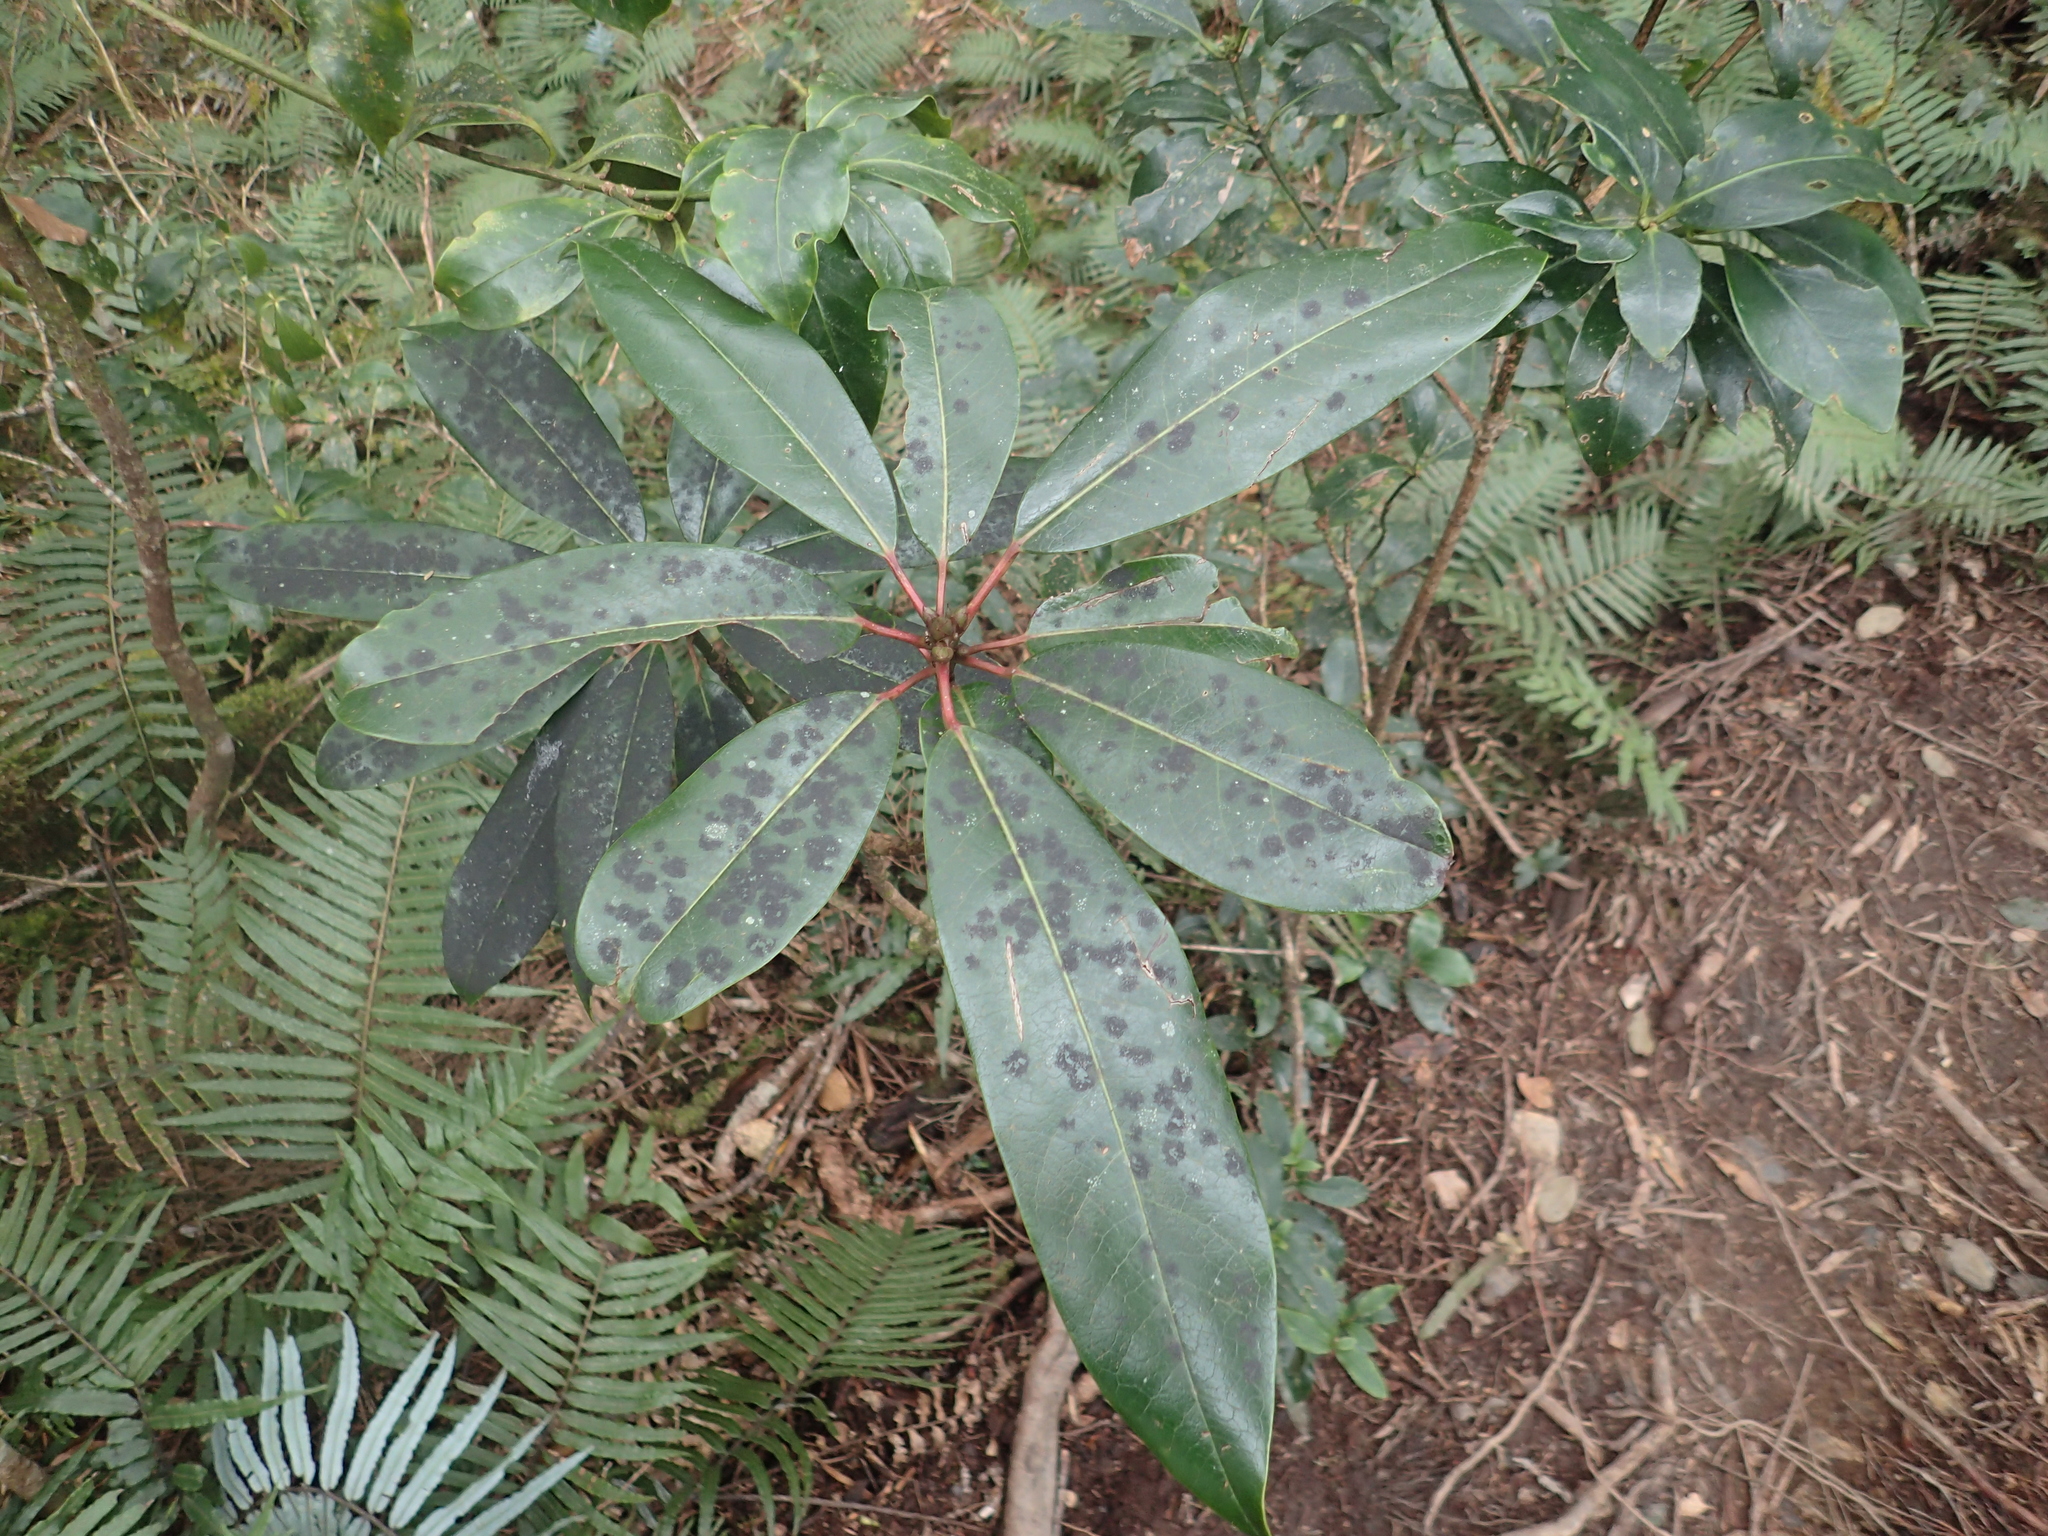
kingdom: Plantae
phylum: Tracheophyta
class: Magnoliopsida
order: Saxifragales
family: Daphniphyllaceae
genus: Daphniphyllum
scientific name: Daphniphyllum
